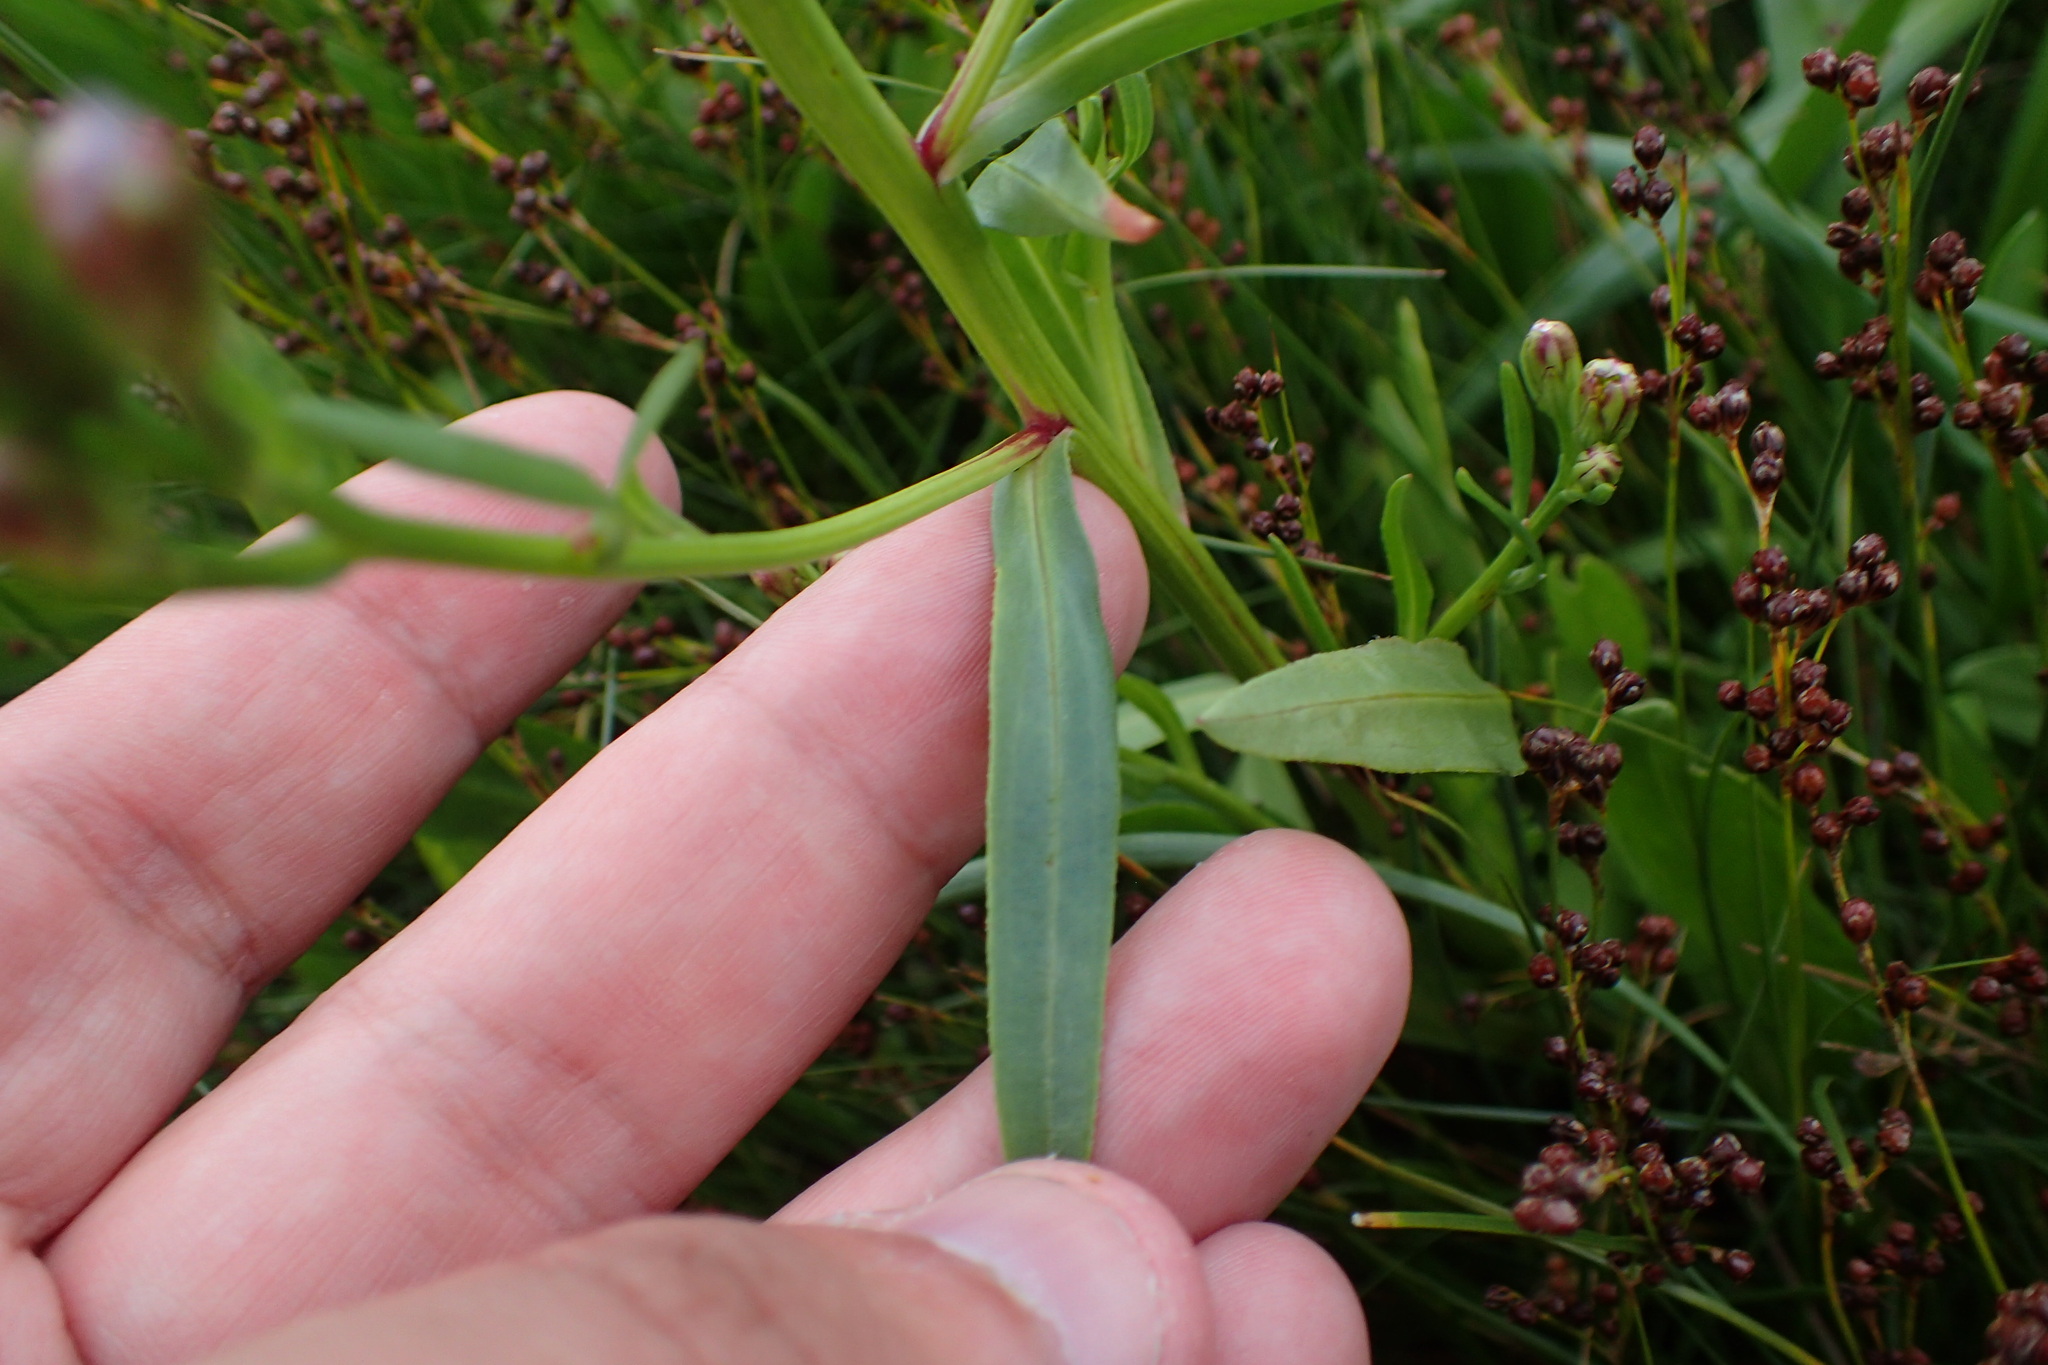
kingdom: Plantae
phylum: Tracheophyta
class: Magnoliopsida
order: Asterales
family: Asteraceae
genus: Tripolium
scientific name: Tripolium pannonicum
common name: Sea aster
